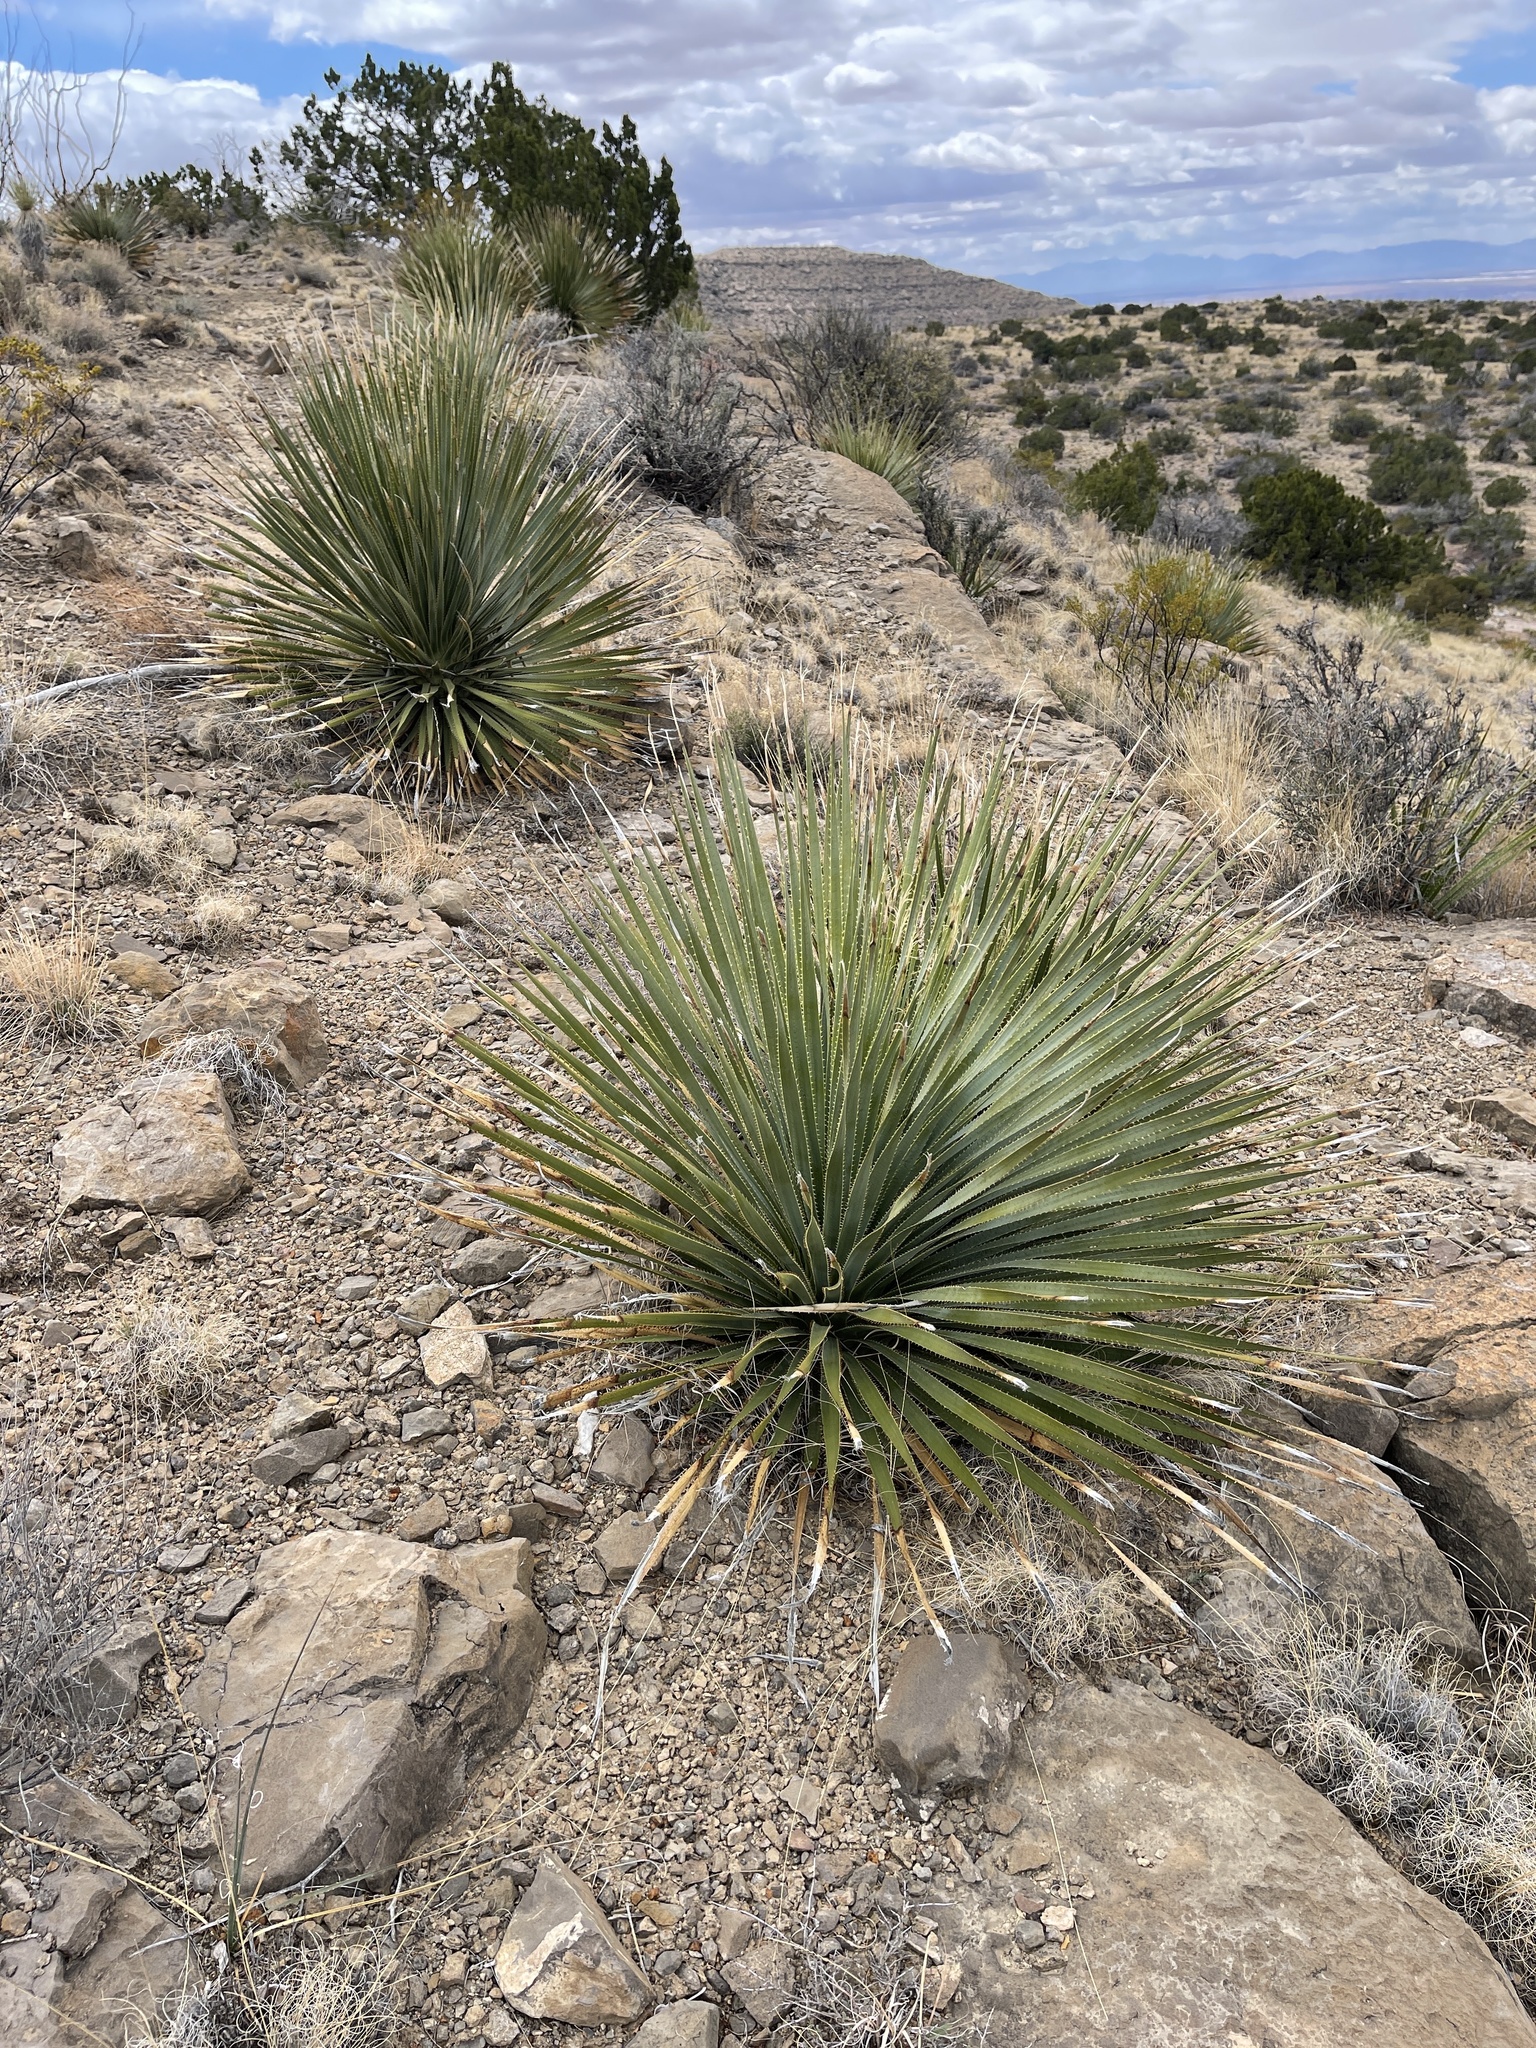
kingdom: Plantae
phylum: Tracheophyta
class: Liliopsida
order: Asparagales
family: Asparagaceae
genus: Dasylirion
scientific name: Dasylirion wheeleri
